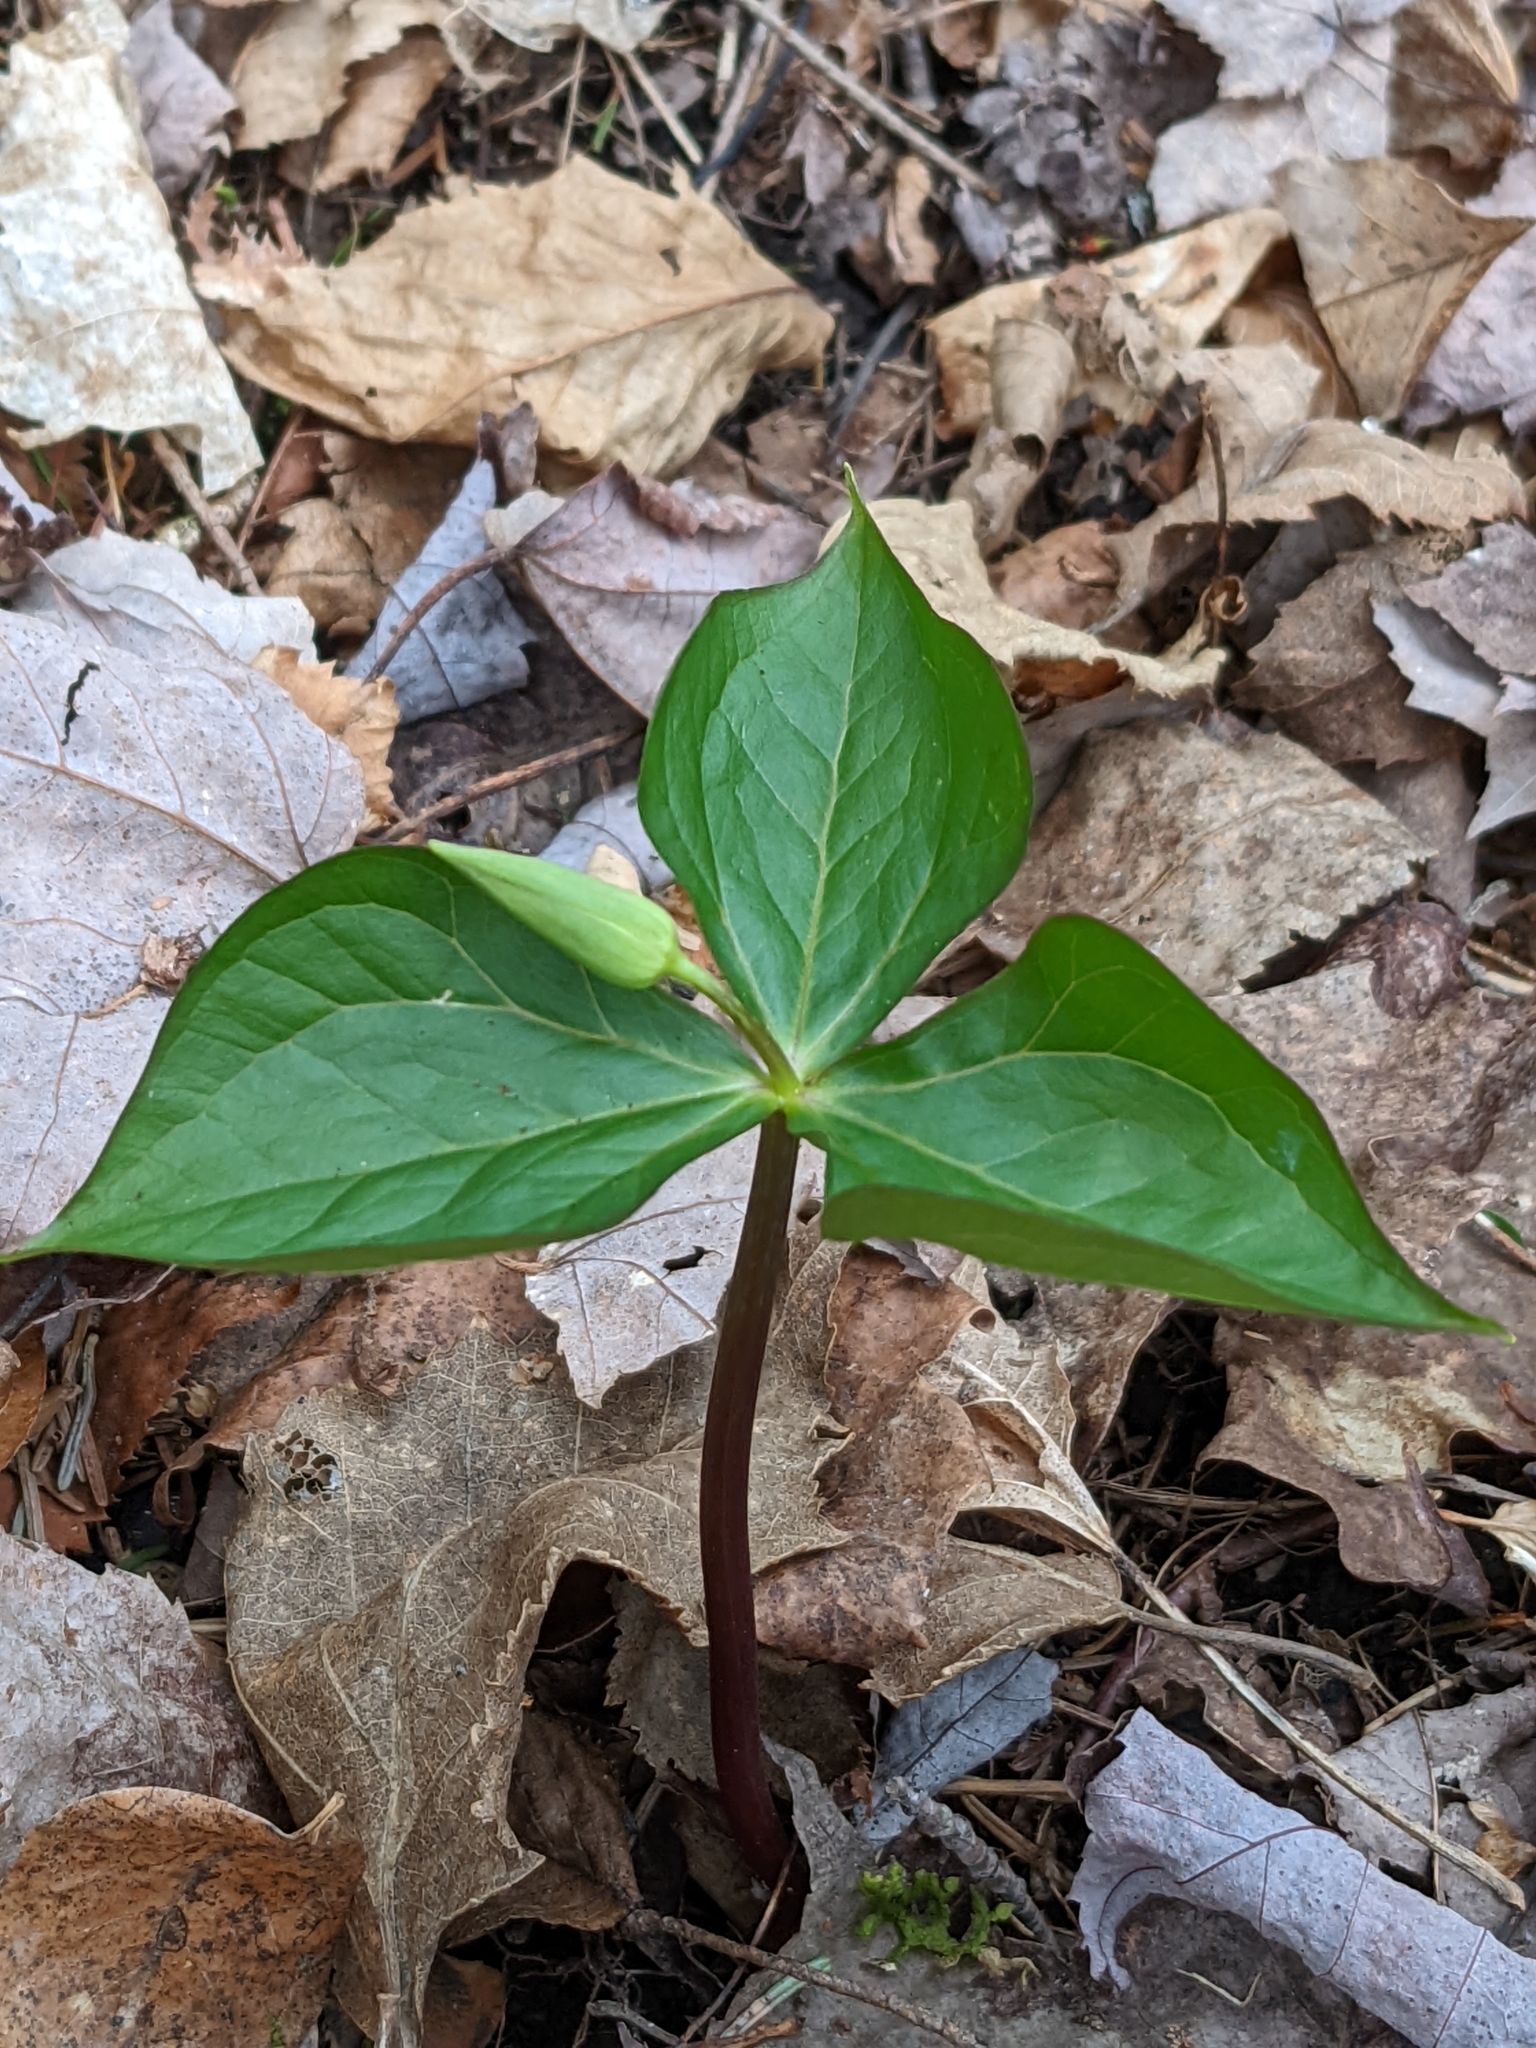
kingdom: Plantae
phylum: Tracheophyta
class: Liliopsida
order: Liliales
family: Melanthiaceae
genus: Trillium
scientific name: Trillium erectum
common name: Purple trillium
